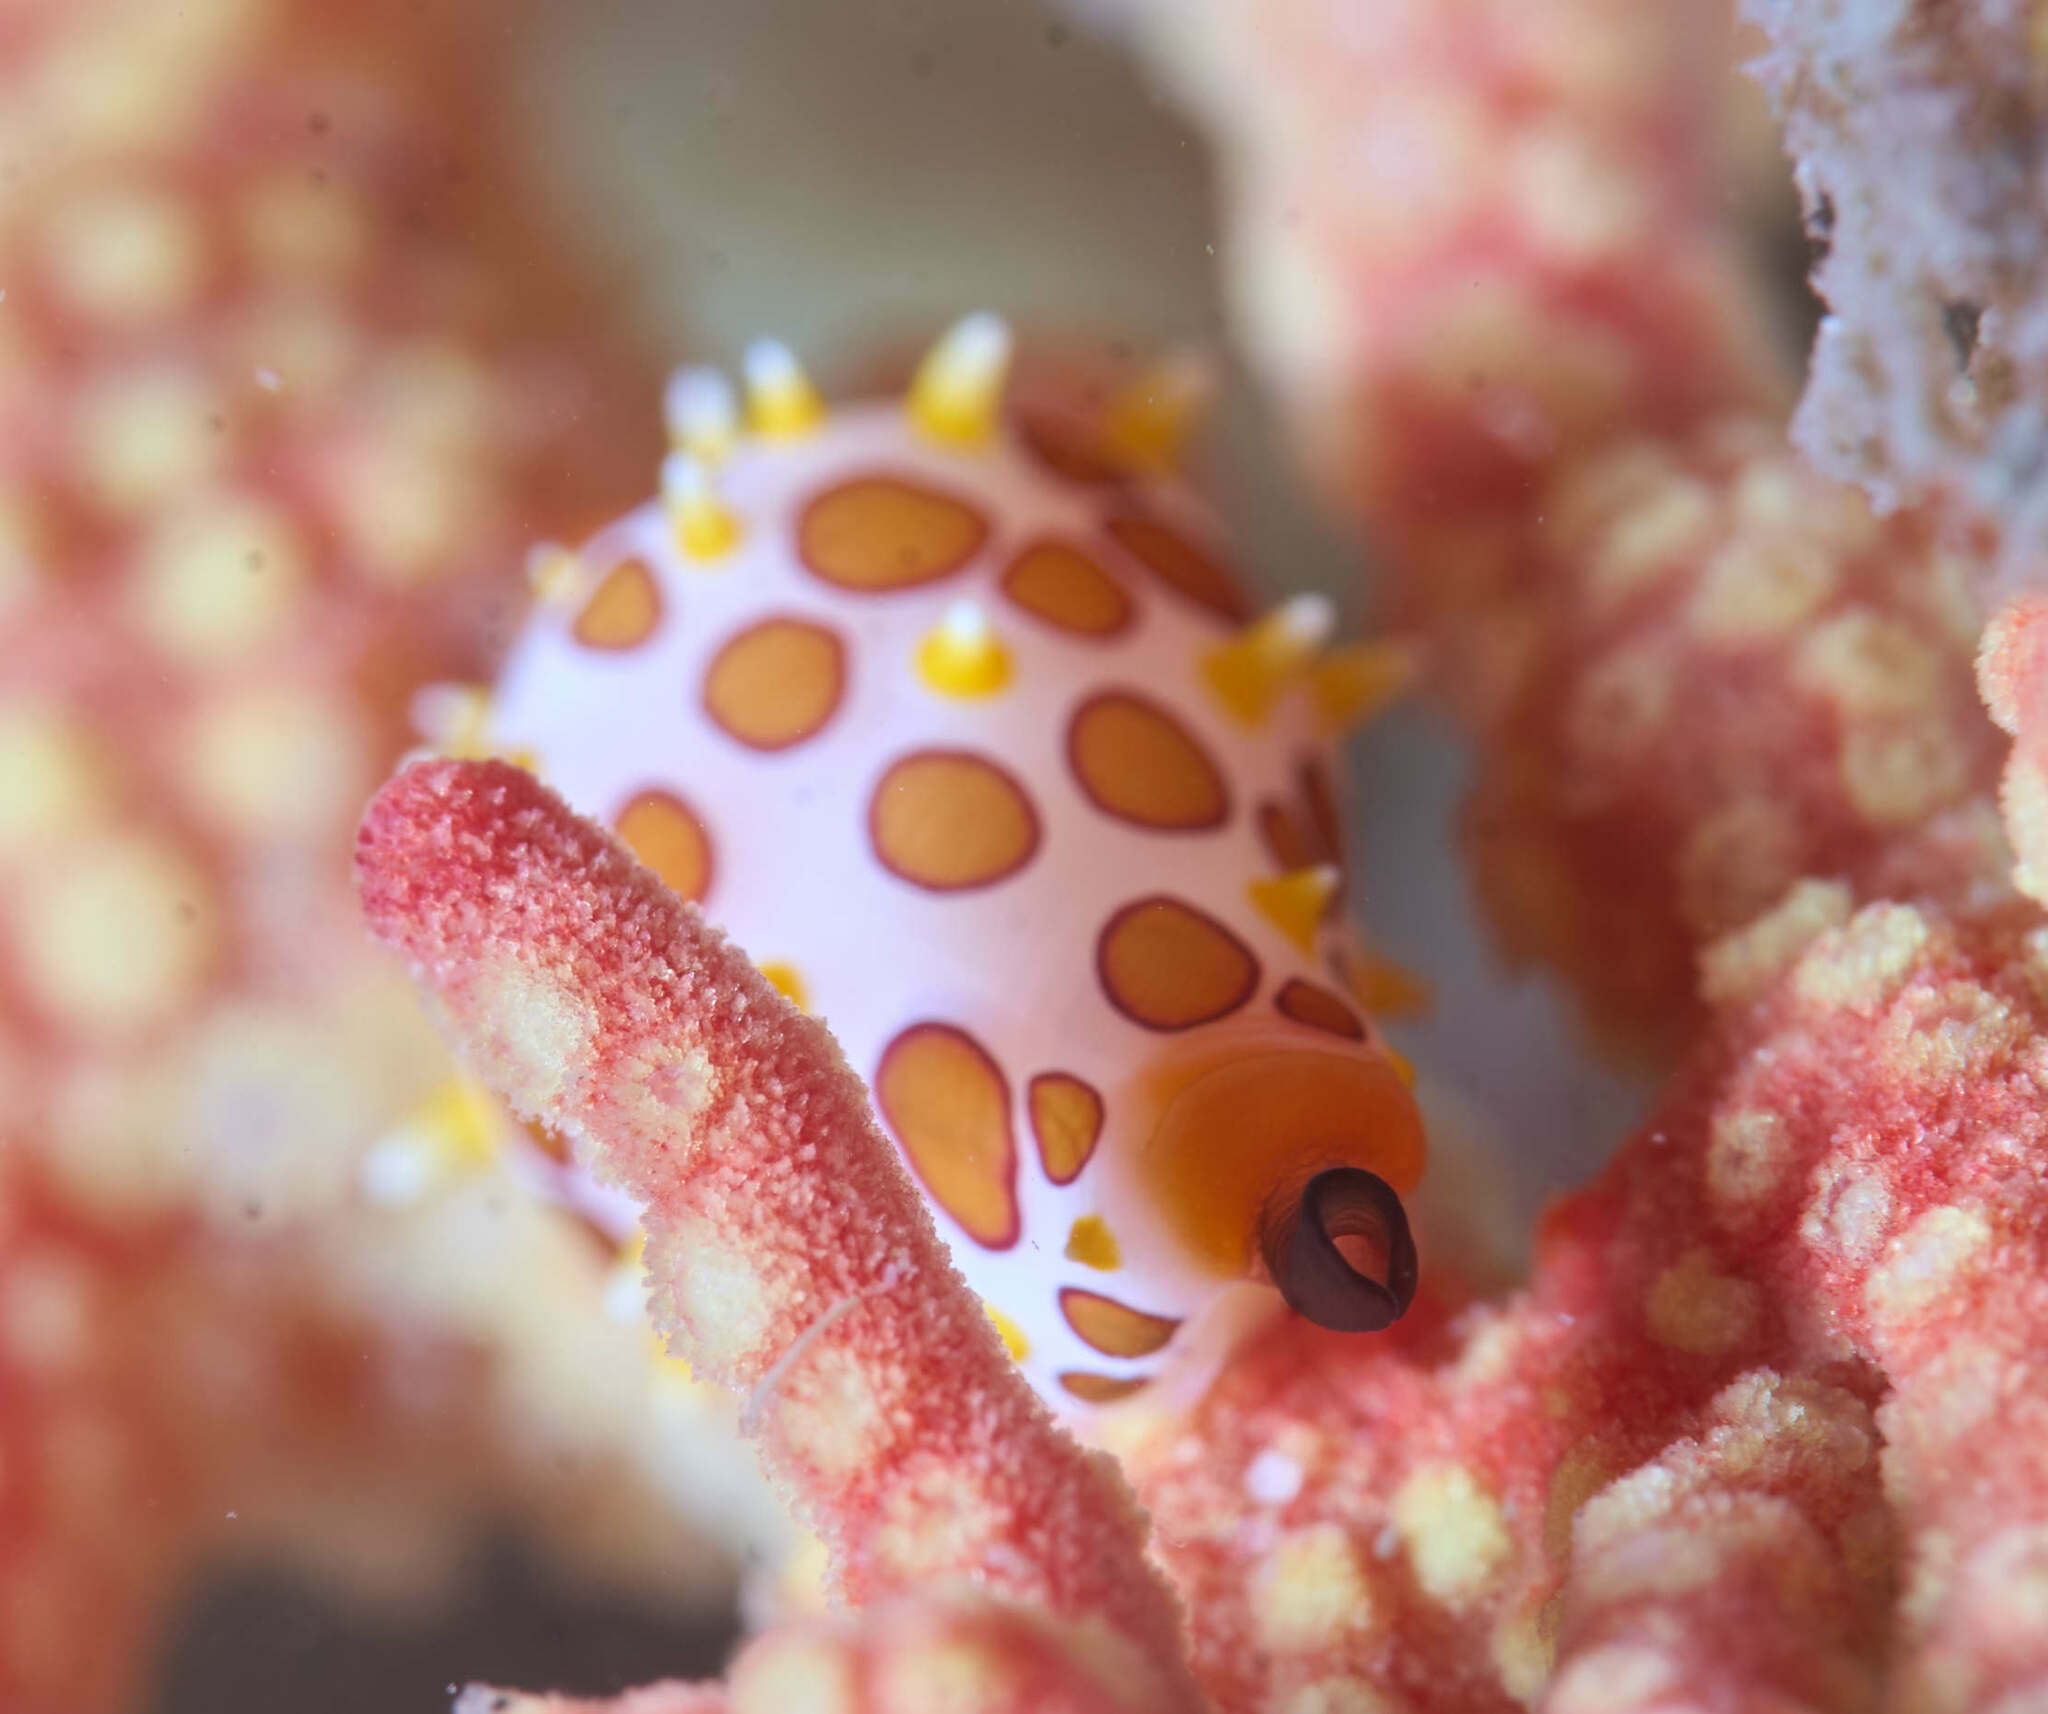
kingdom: Animalia
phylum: Mollusca
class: Gastropoda
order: Littorinimorpha
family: Ovulidae
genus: Primovula
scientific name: Primovula rosewateri
